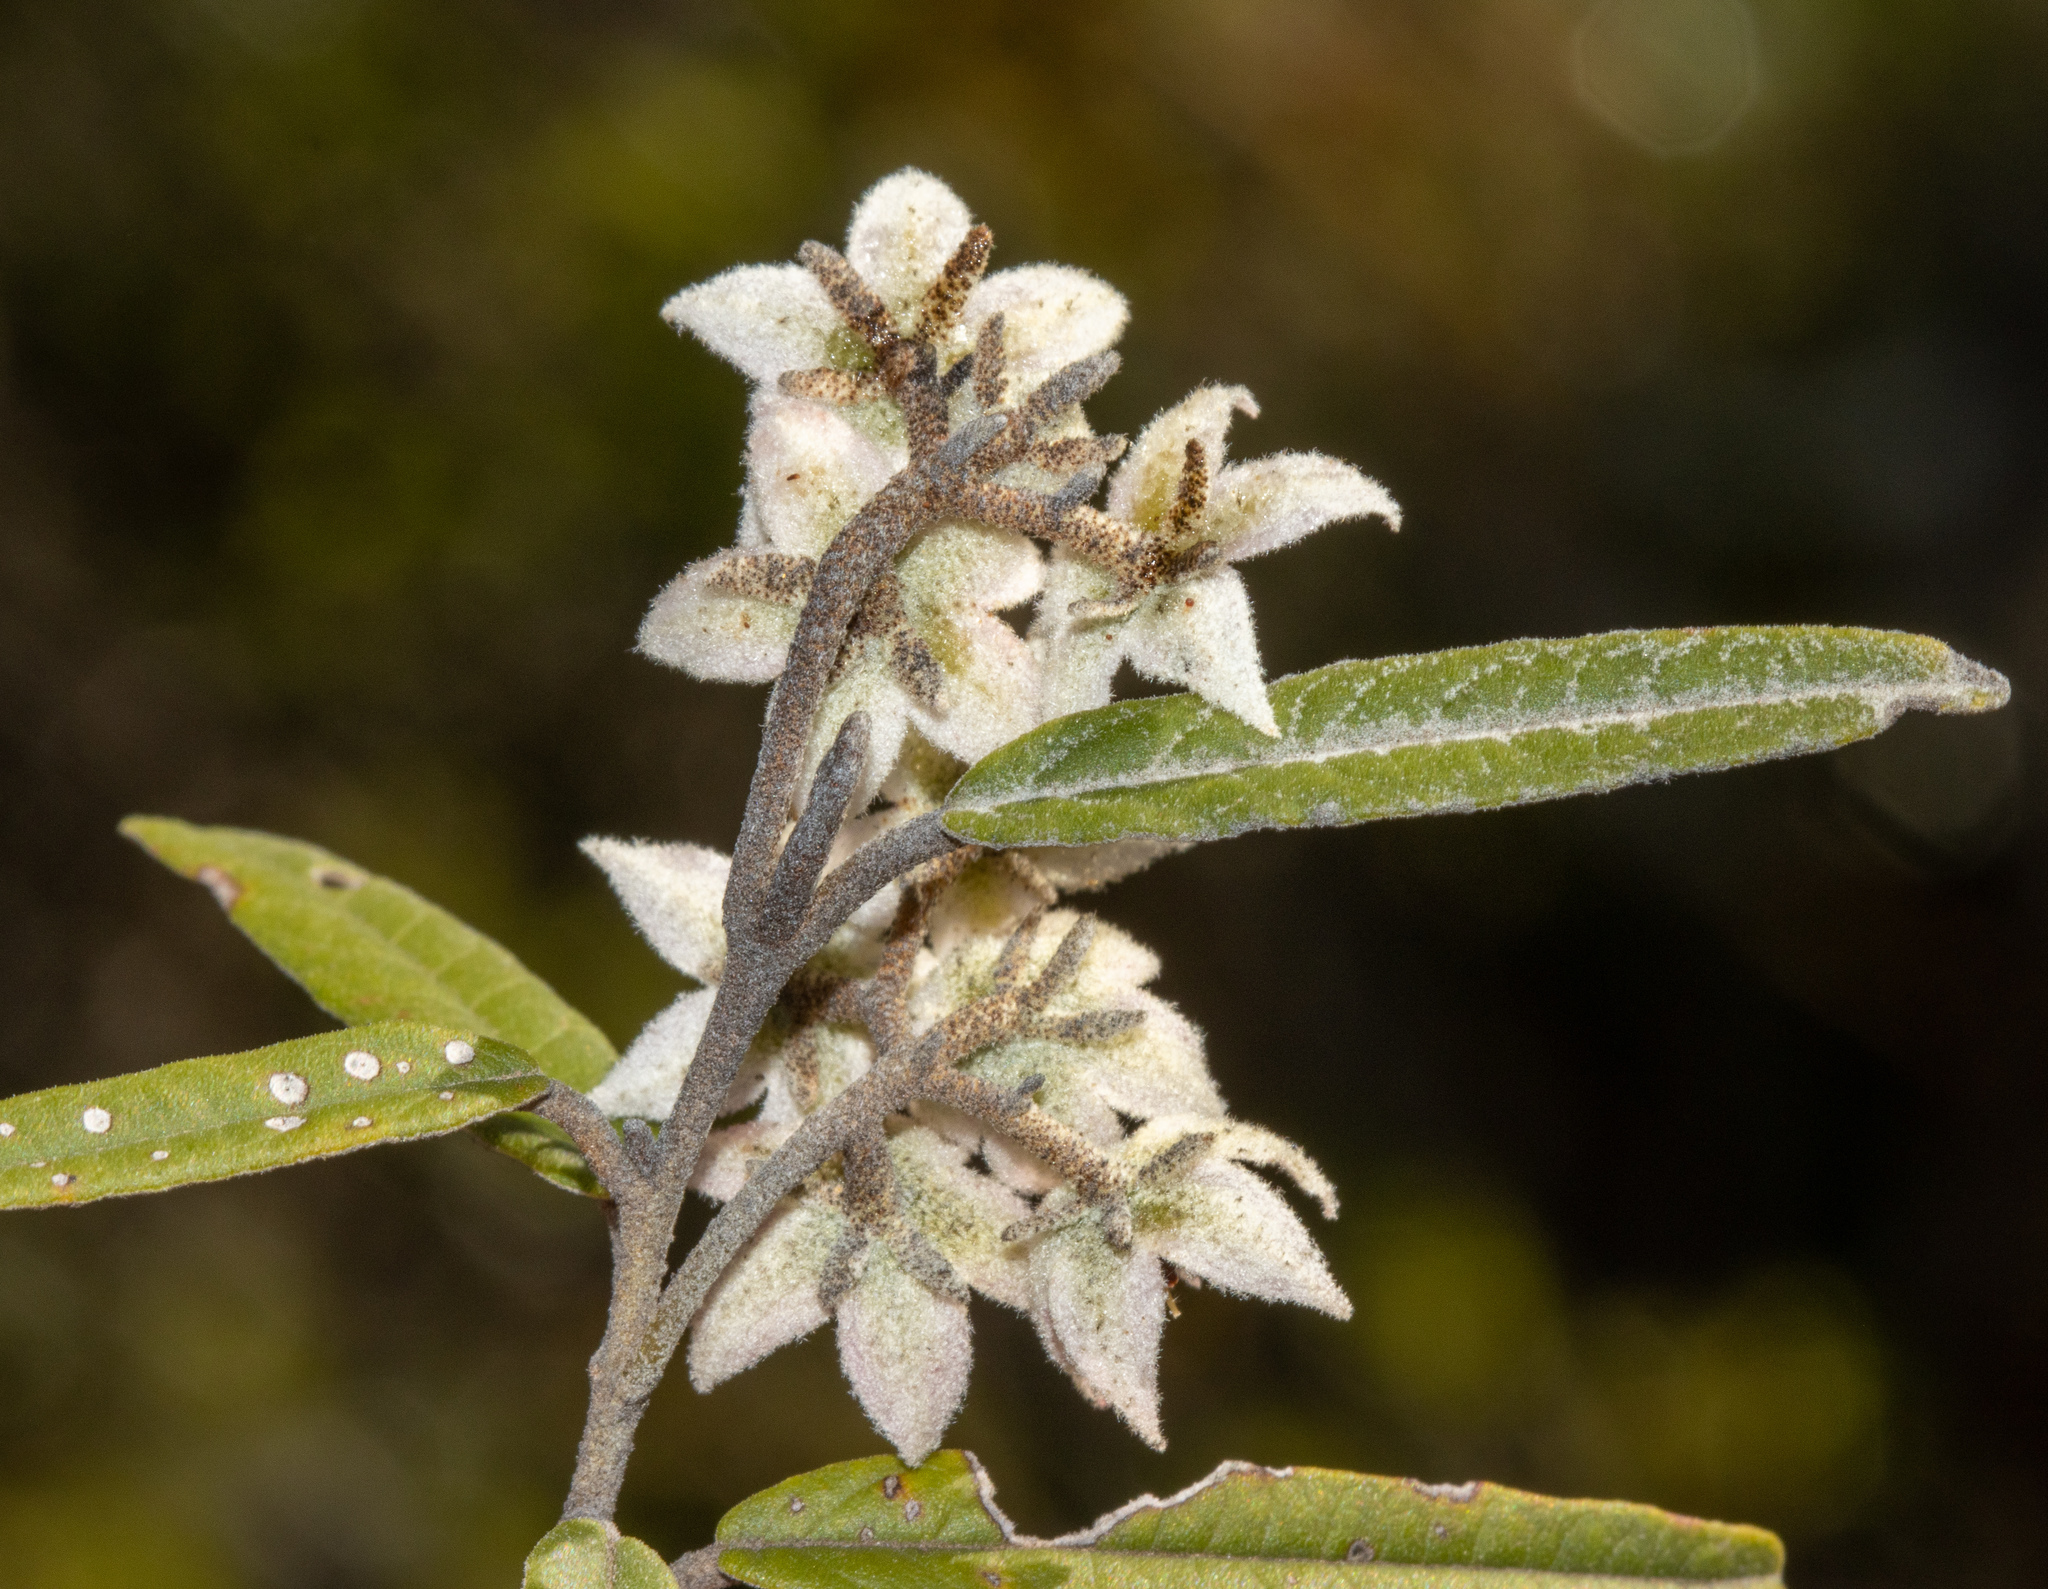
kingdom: Plantae
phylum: Tracheophyta
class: Magnoliopsida
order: Malvales
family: Malvaceae
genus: Lasiopetalum
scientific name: Lasiopetalum behrii
